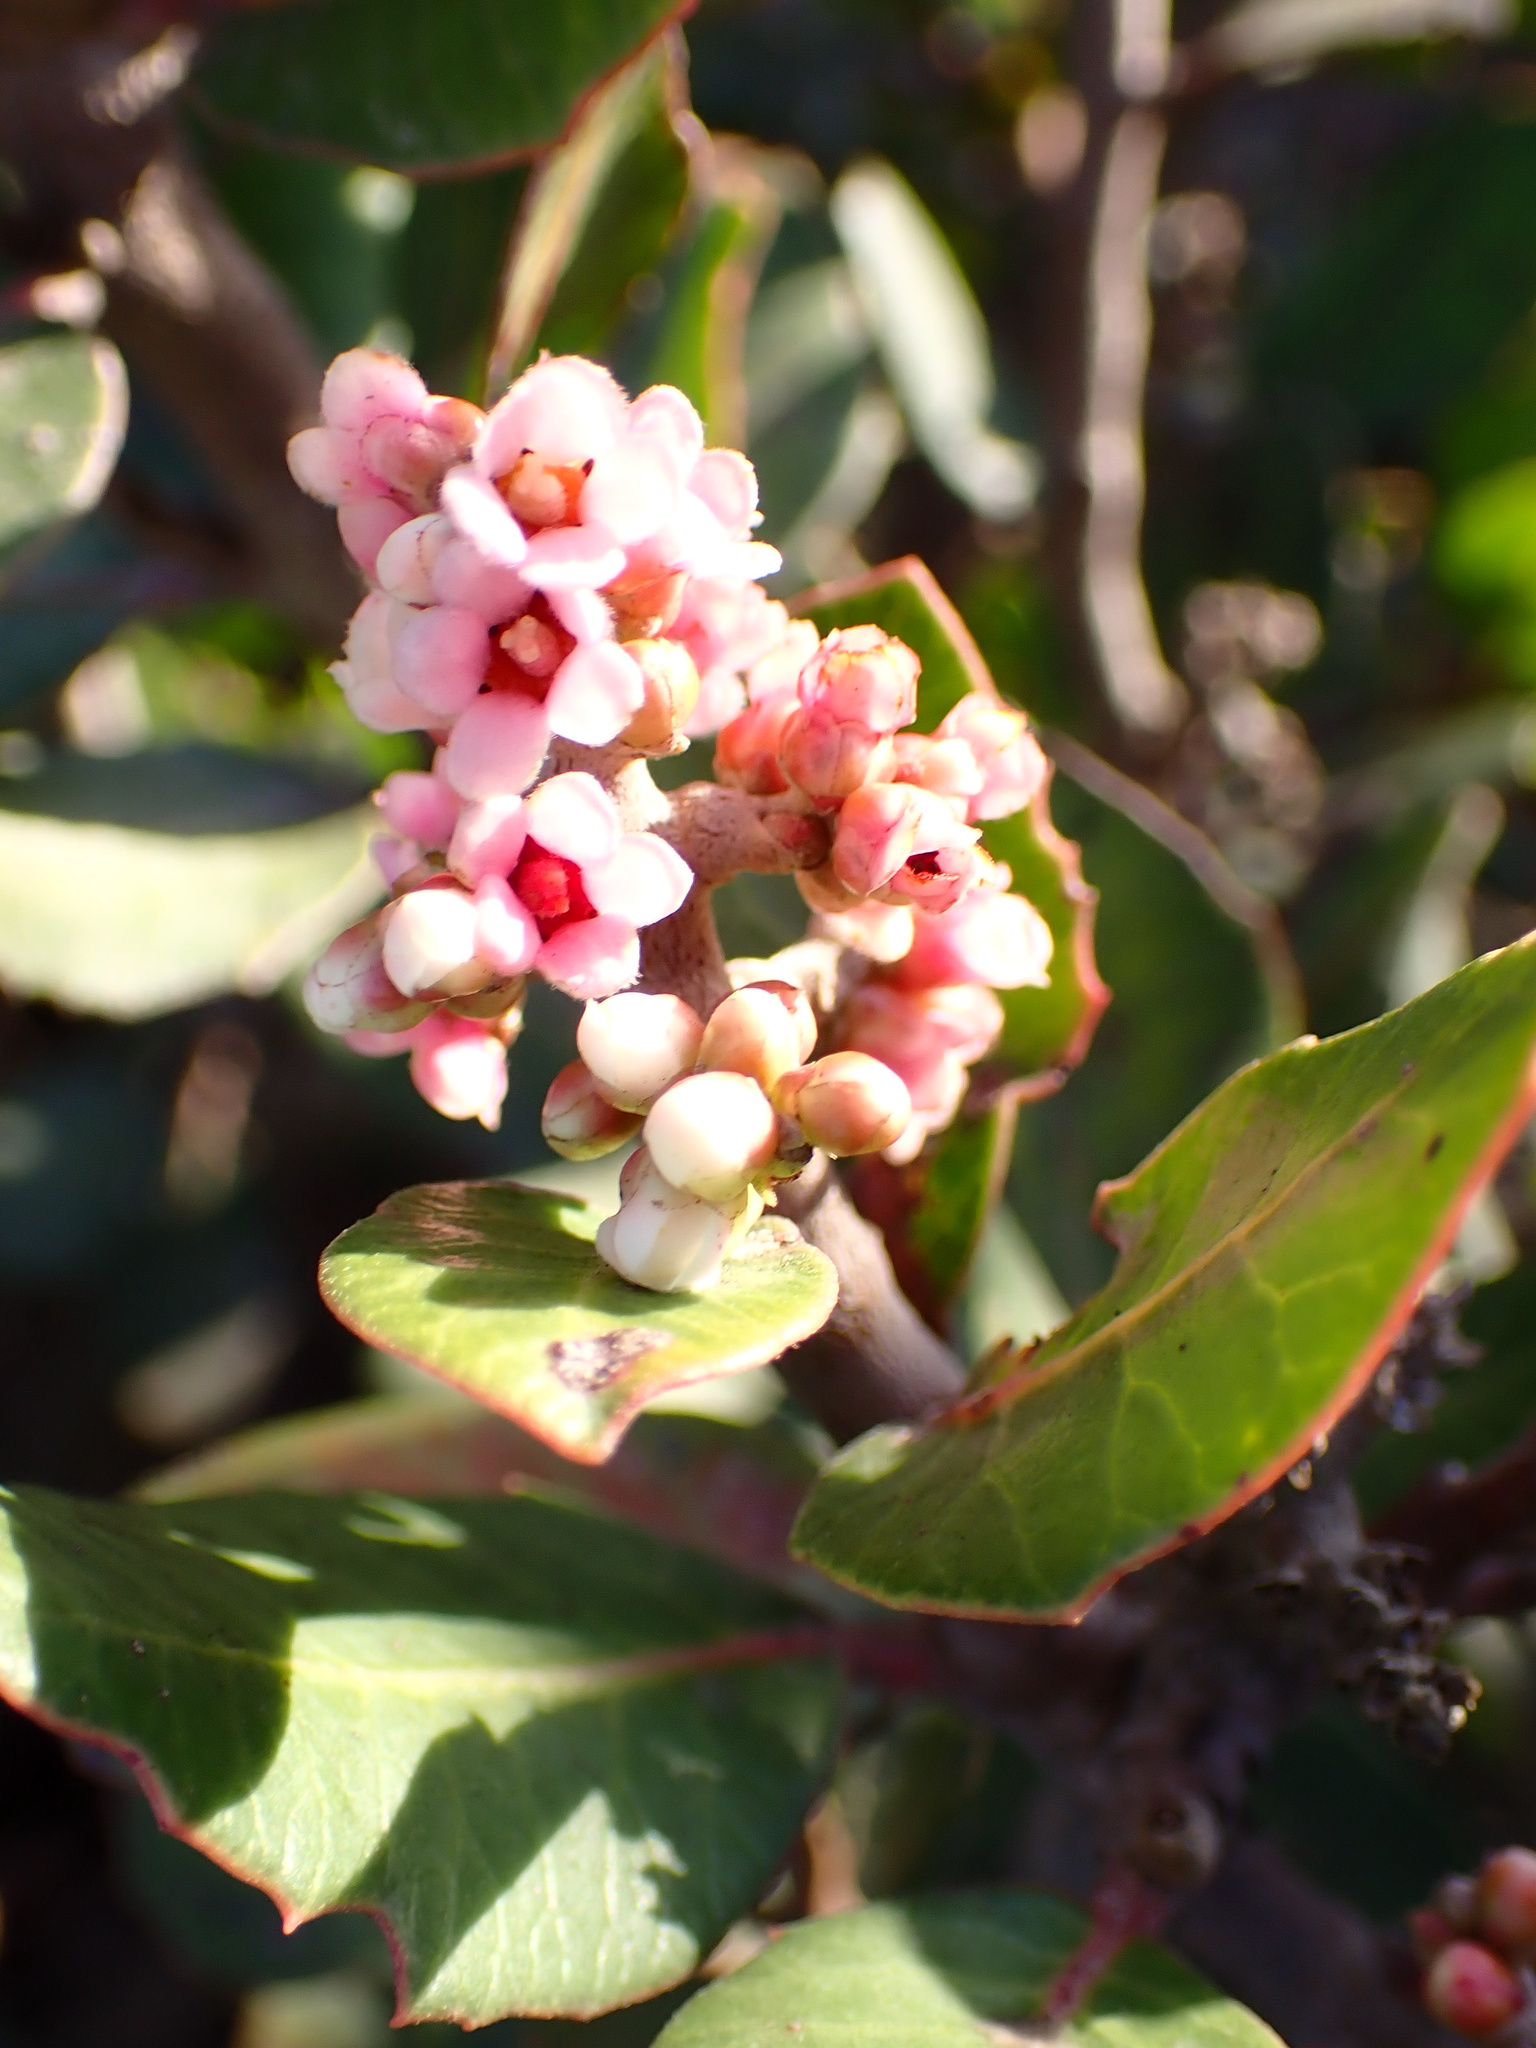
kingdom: Plantae
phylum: Tracheophyta
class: Magnoliopsida
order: Sapindales
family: Anacardiaceae
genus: Rhus
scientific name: Rhus integrifolia
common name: Lemonade sumac
